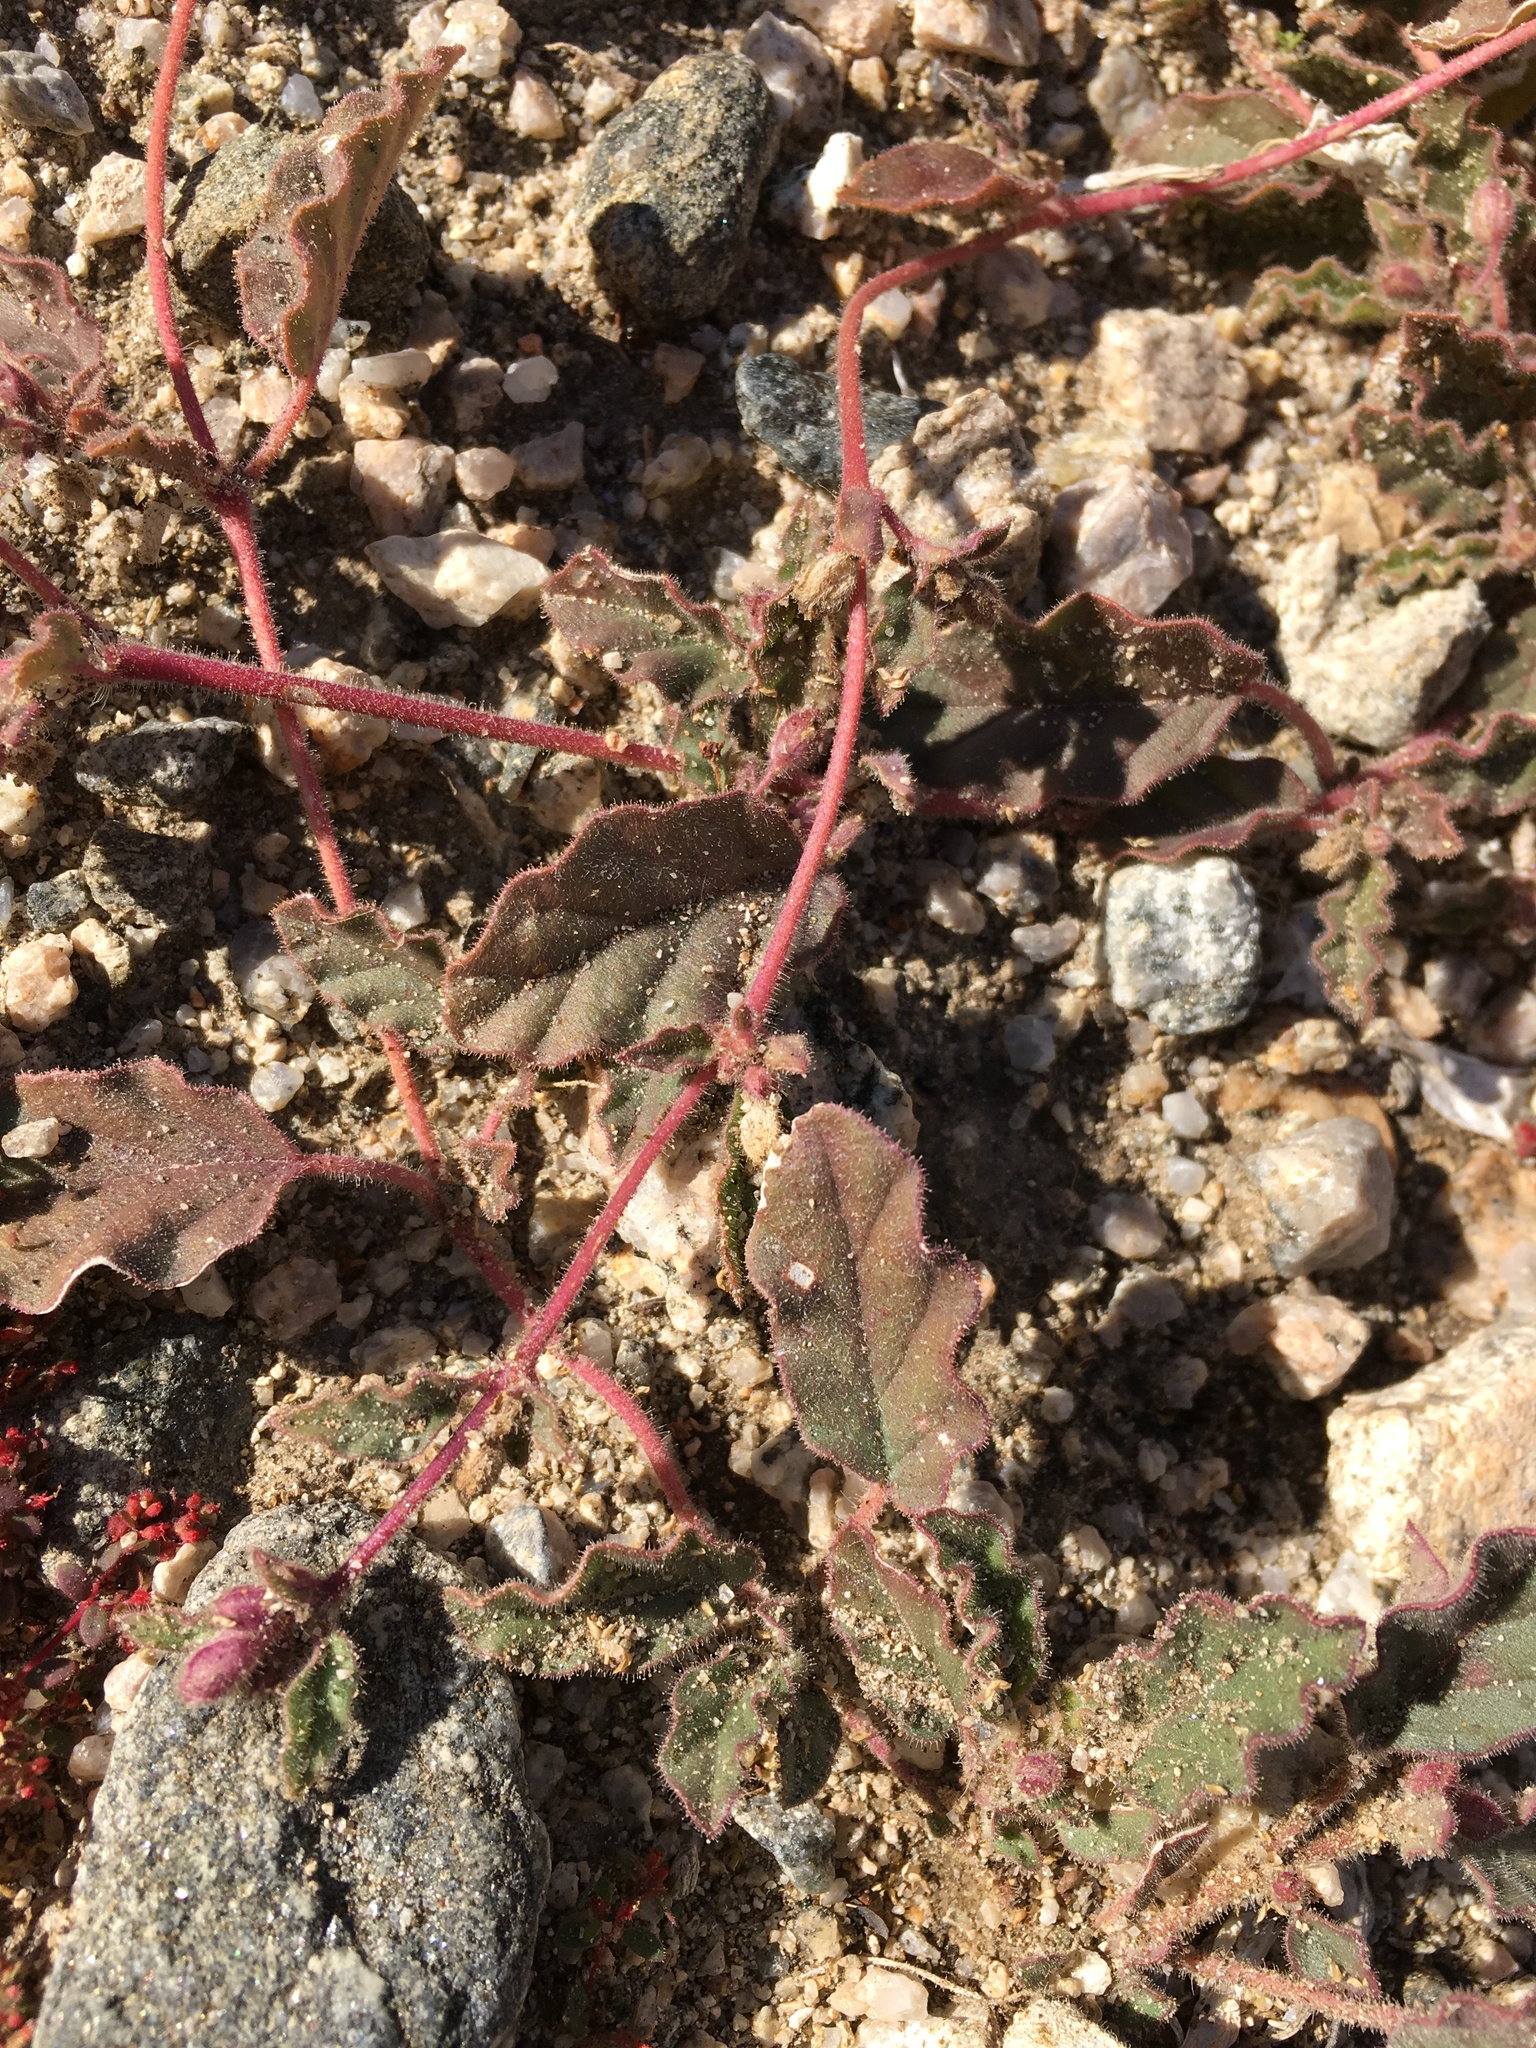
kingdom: Plantae
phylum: Tracheophyta
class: Magnoliopsida
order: Caryophyllales
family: Nyctaginaceae
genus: Allionia
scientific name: Allionia incarnata
